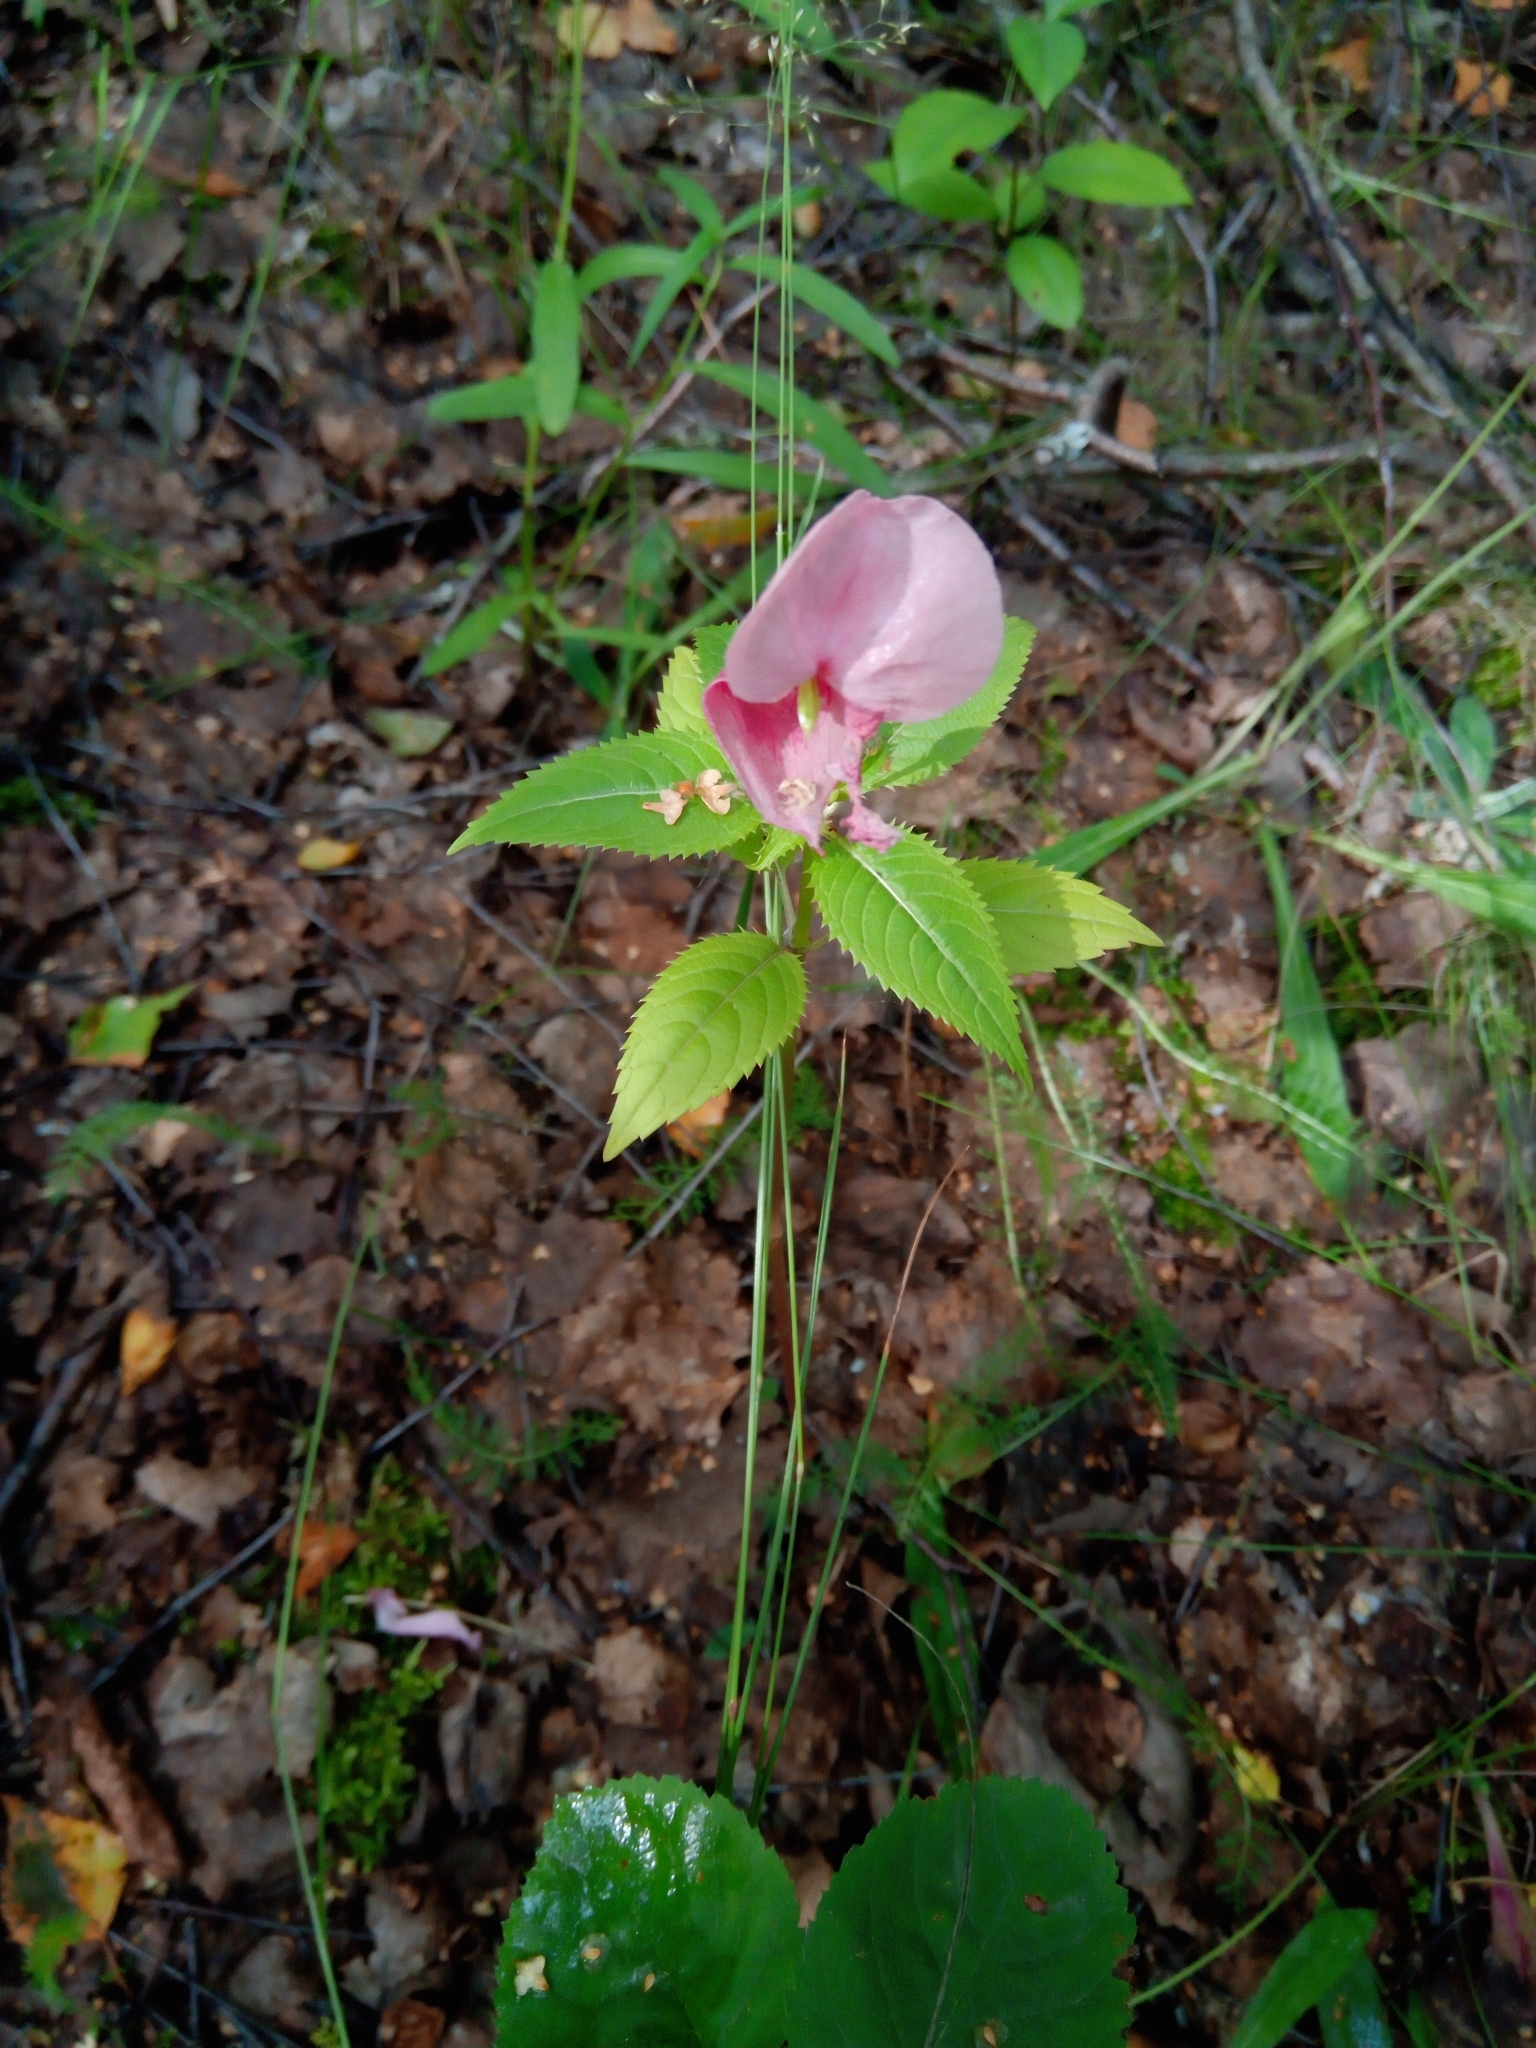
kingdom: Plantae
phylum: Tracheophyta
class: Magnoliopsida
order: Ericales
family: Balsaminaceae
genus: Impatiens
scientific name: Impatiens glandulifera
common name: Himalayan balsam
